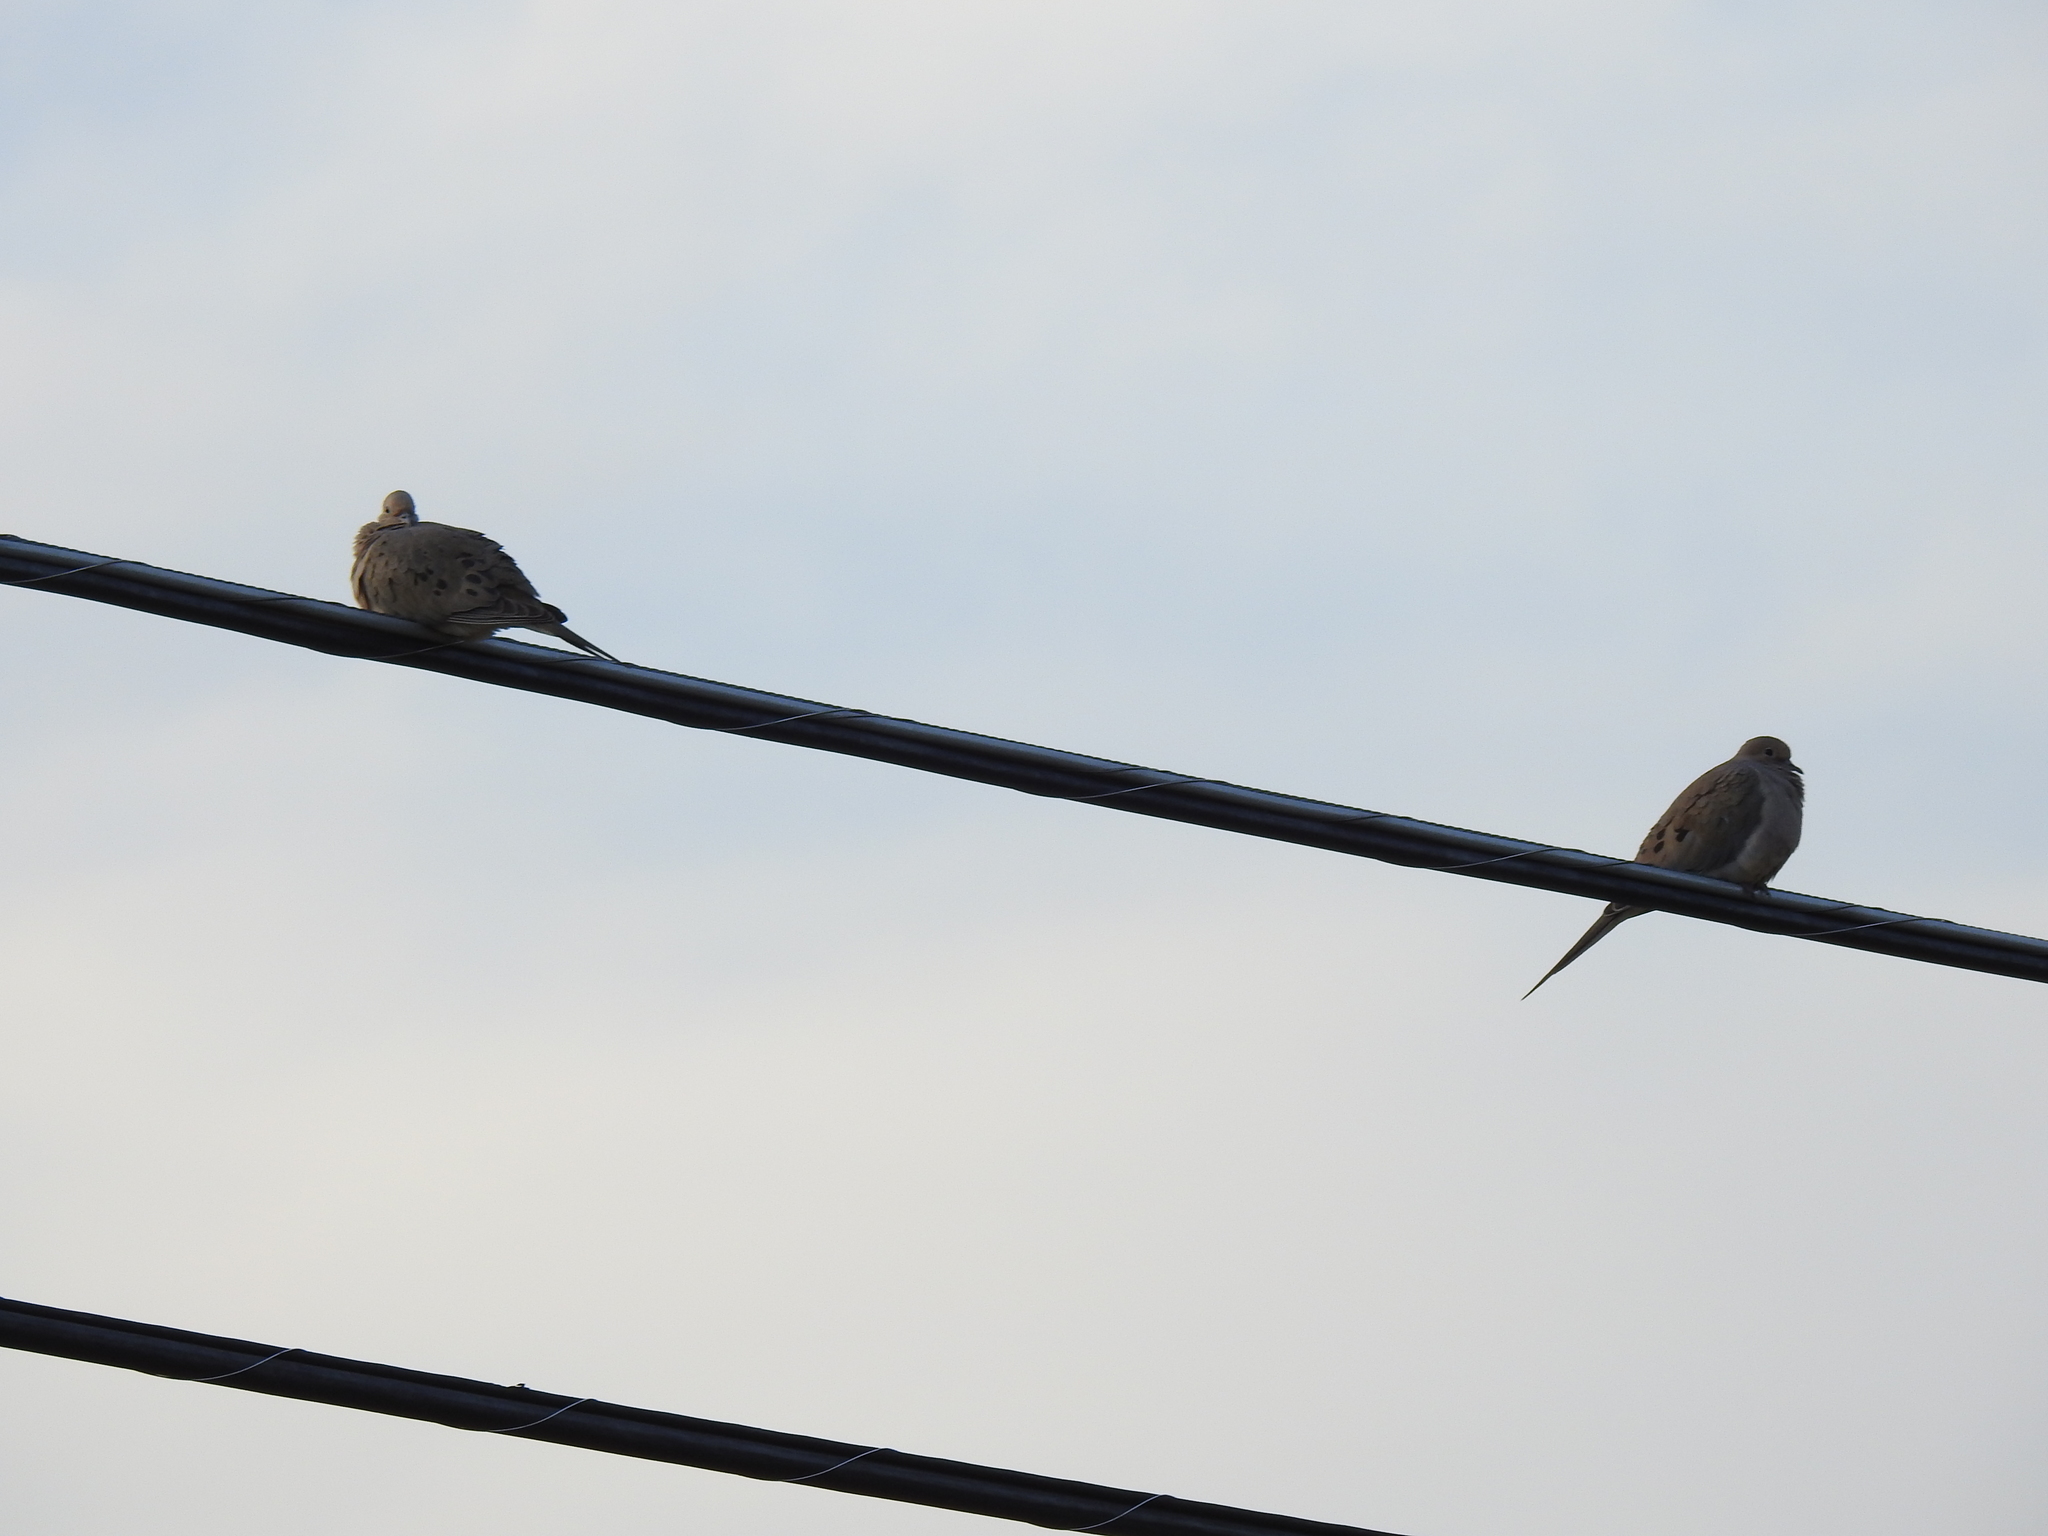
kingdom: Animalia
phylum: Chordata
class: Aves
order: Columbiformes
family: Columbidae
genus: Zenaida
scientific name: Zenaida macroura
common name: Mourning dove
